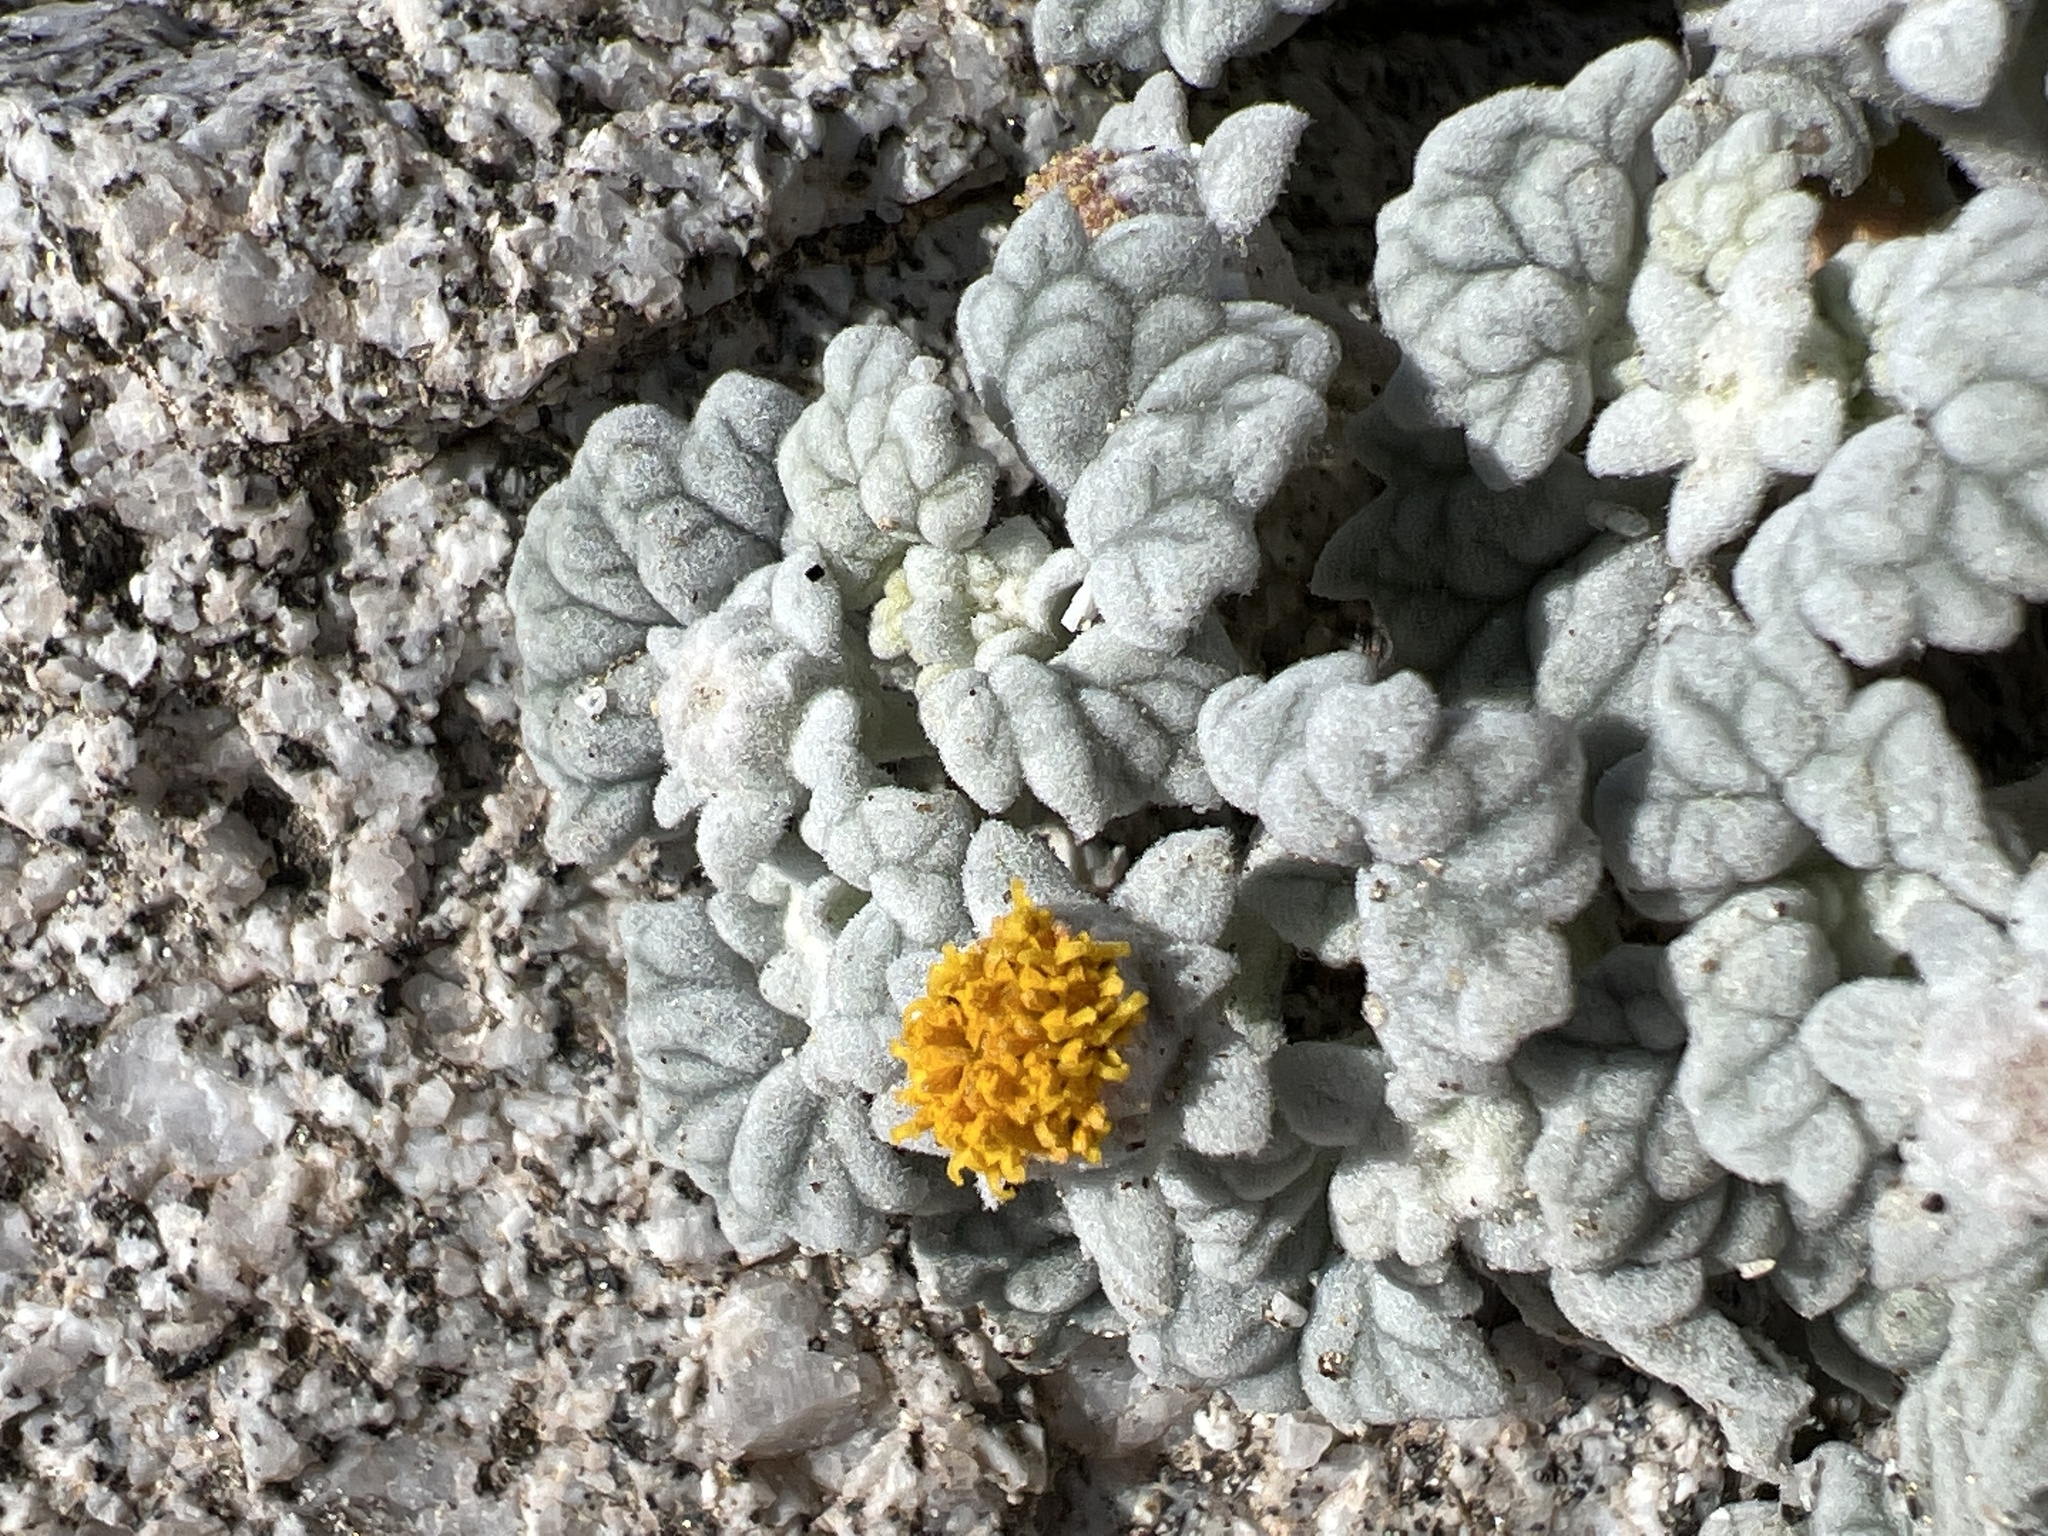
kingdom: Plantae
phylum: Tracheophyta
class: Magnoliopsida
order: Asterales
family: Asteraceae
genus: Psathyrotes
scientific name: Psathyrotes ramosissima
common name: Turtleback
